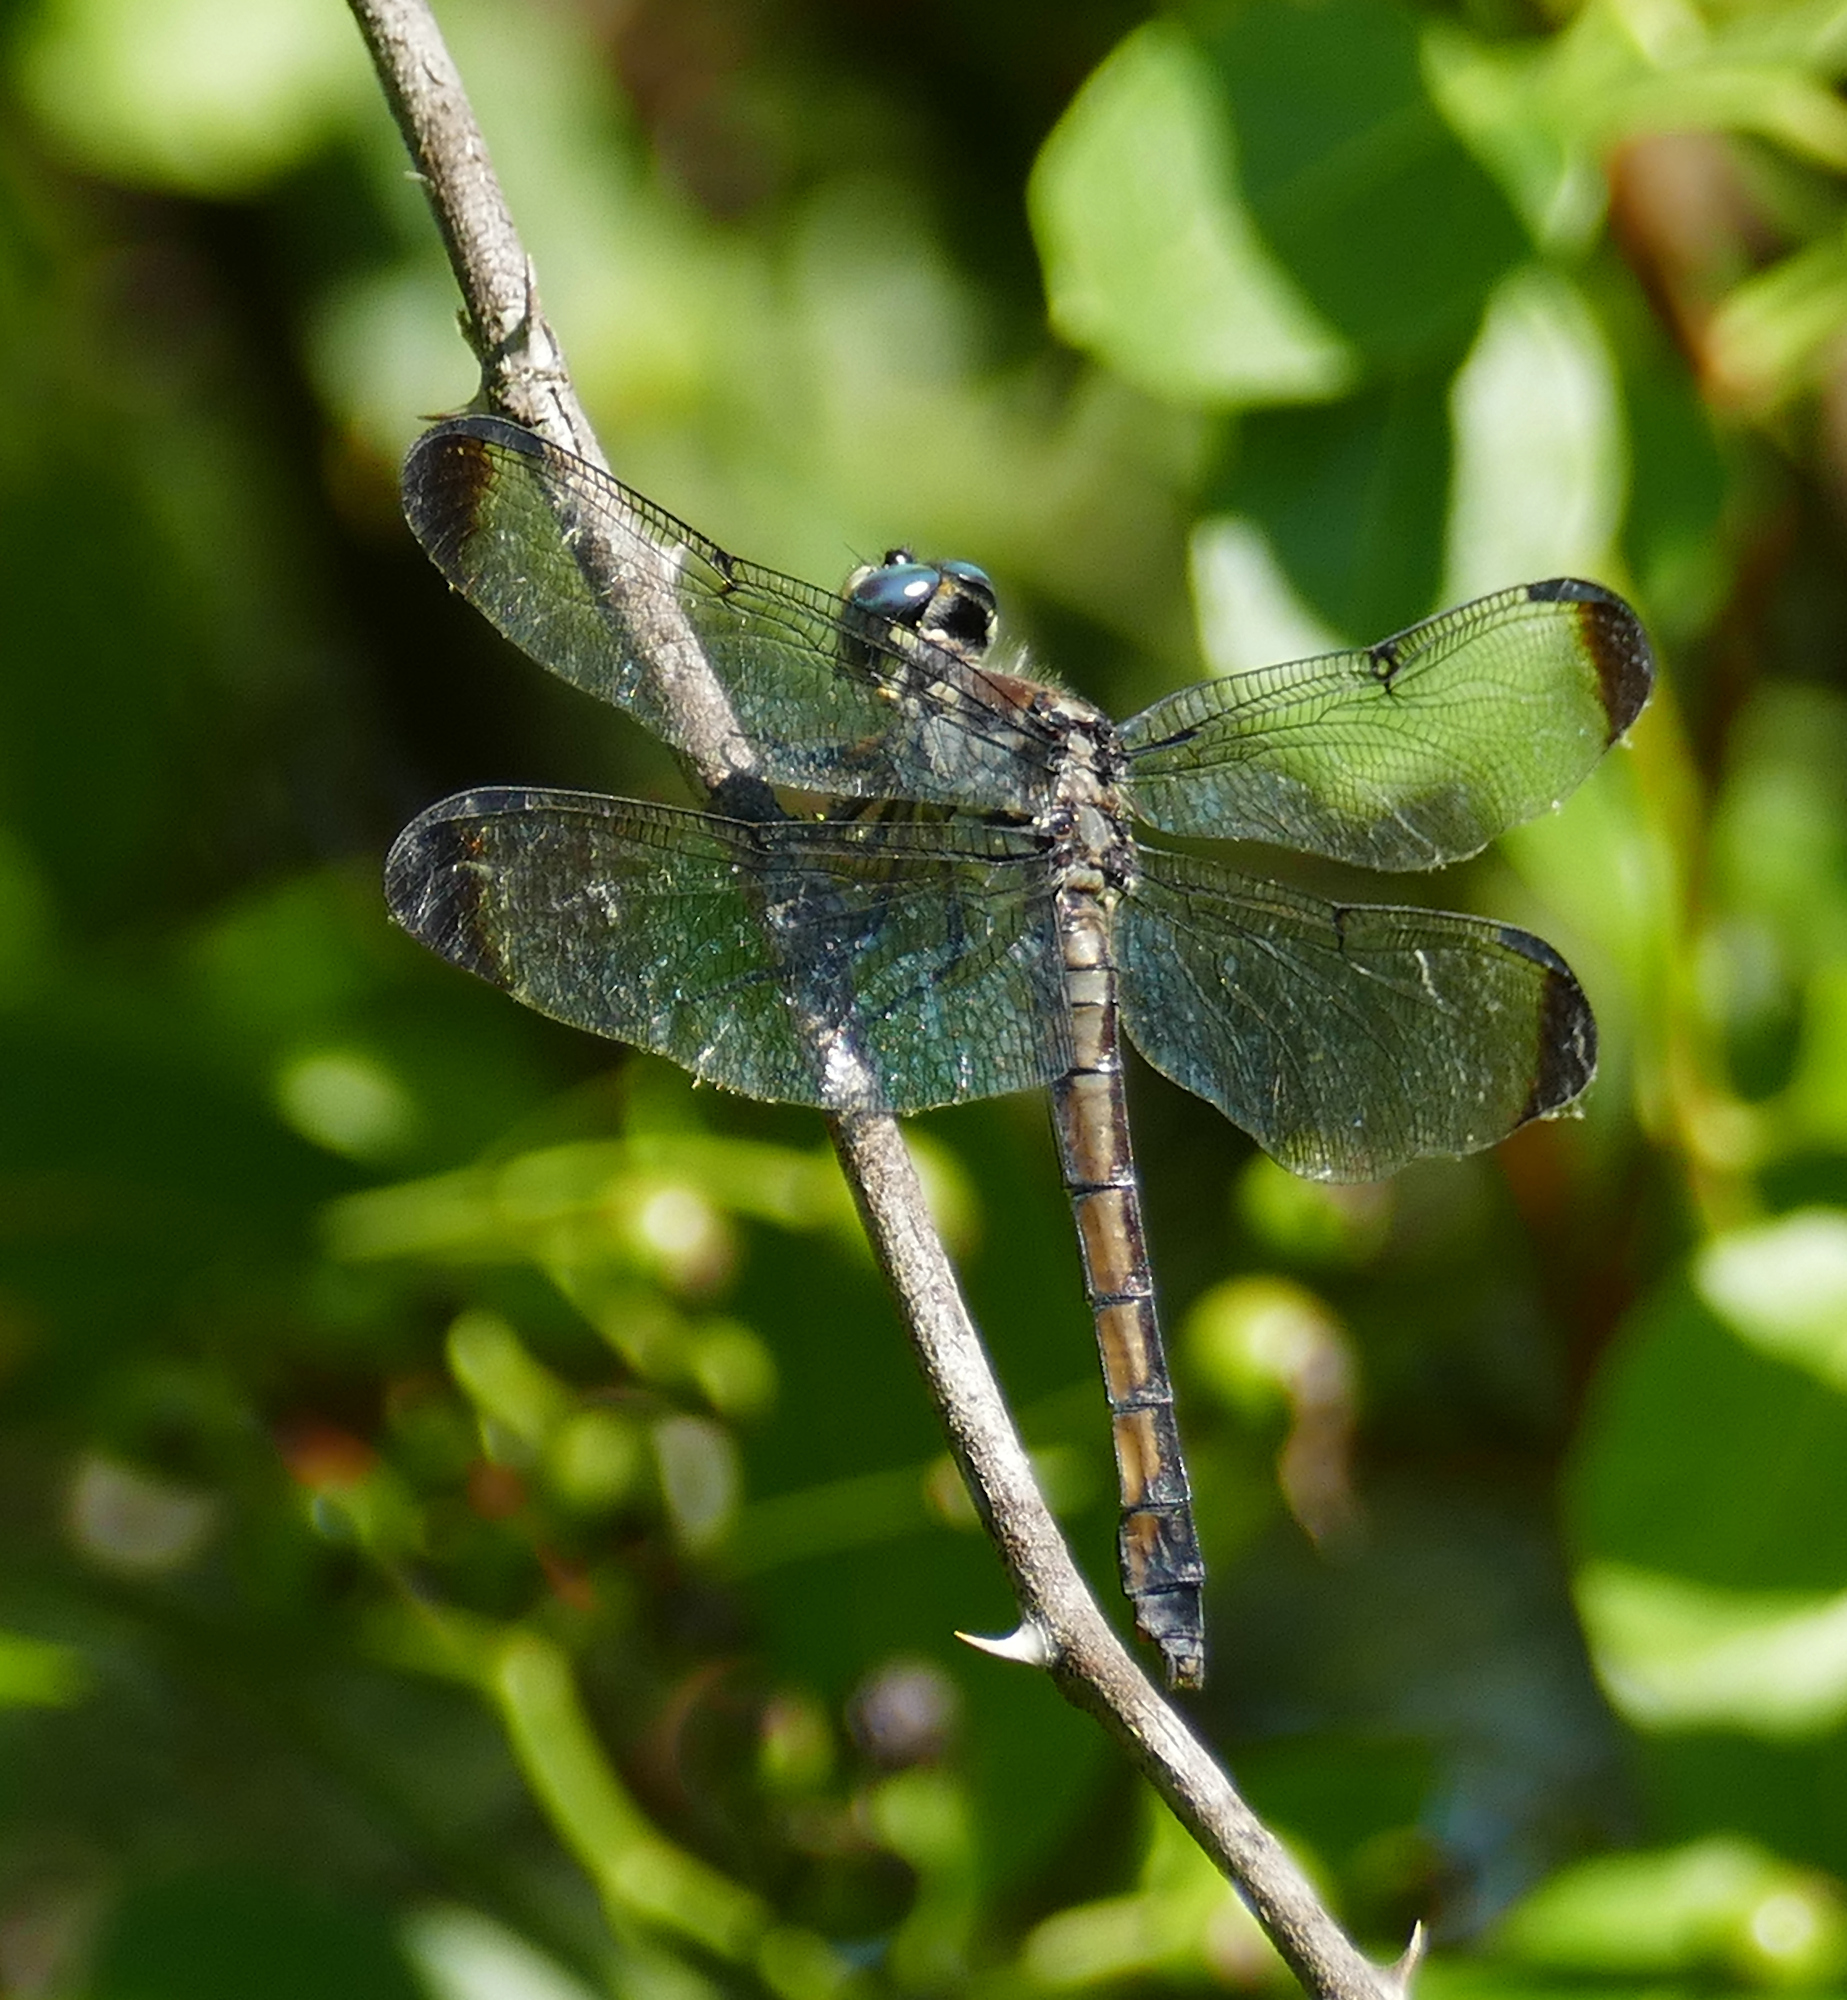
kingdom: Animalia
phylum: Arthropoda
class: Insecta
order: Odonata
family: Libellulidae
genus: Libellula
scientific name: Libellula vibrans
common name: Great blue skimmer
